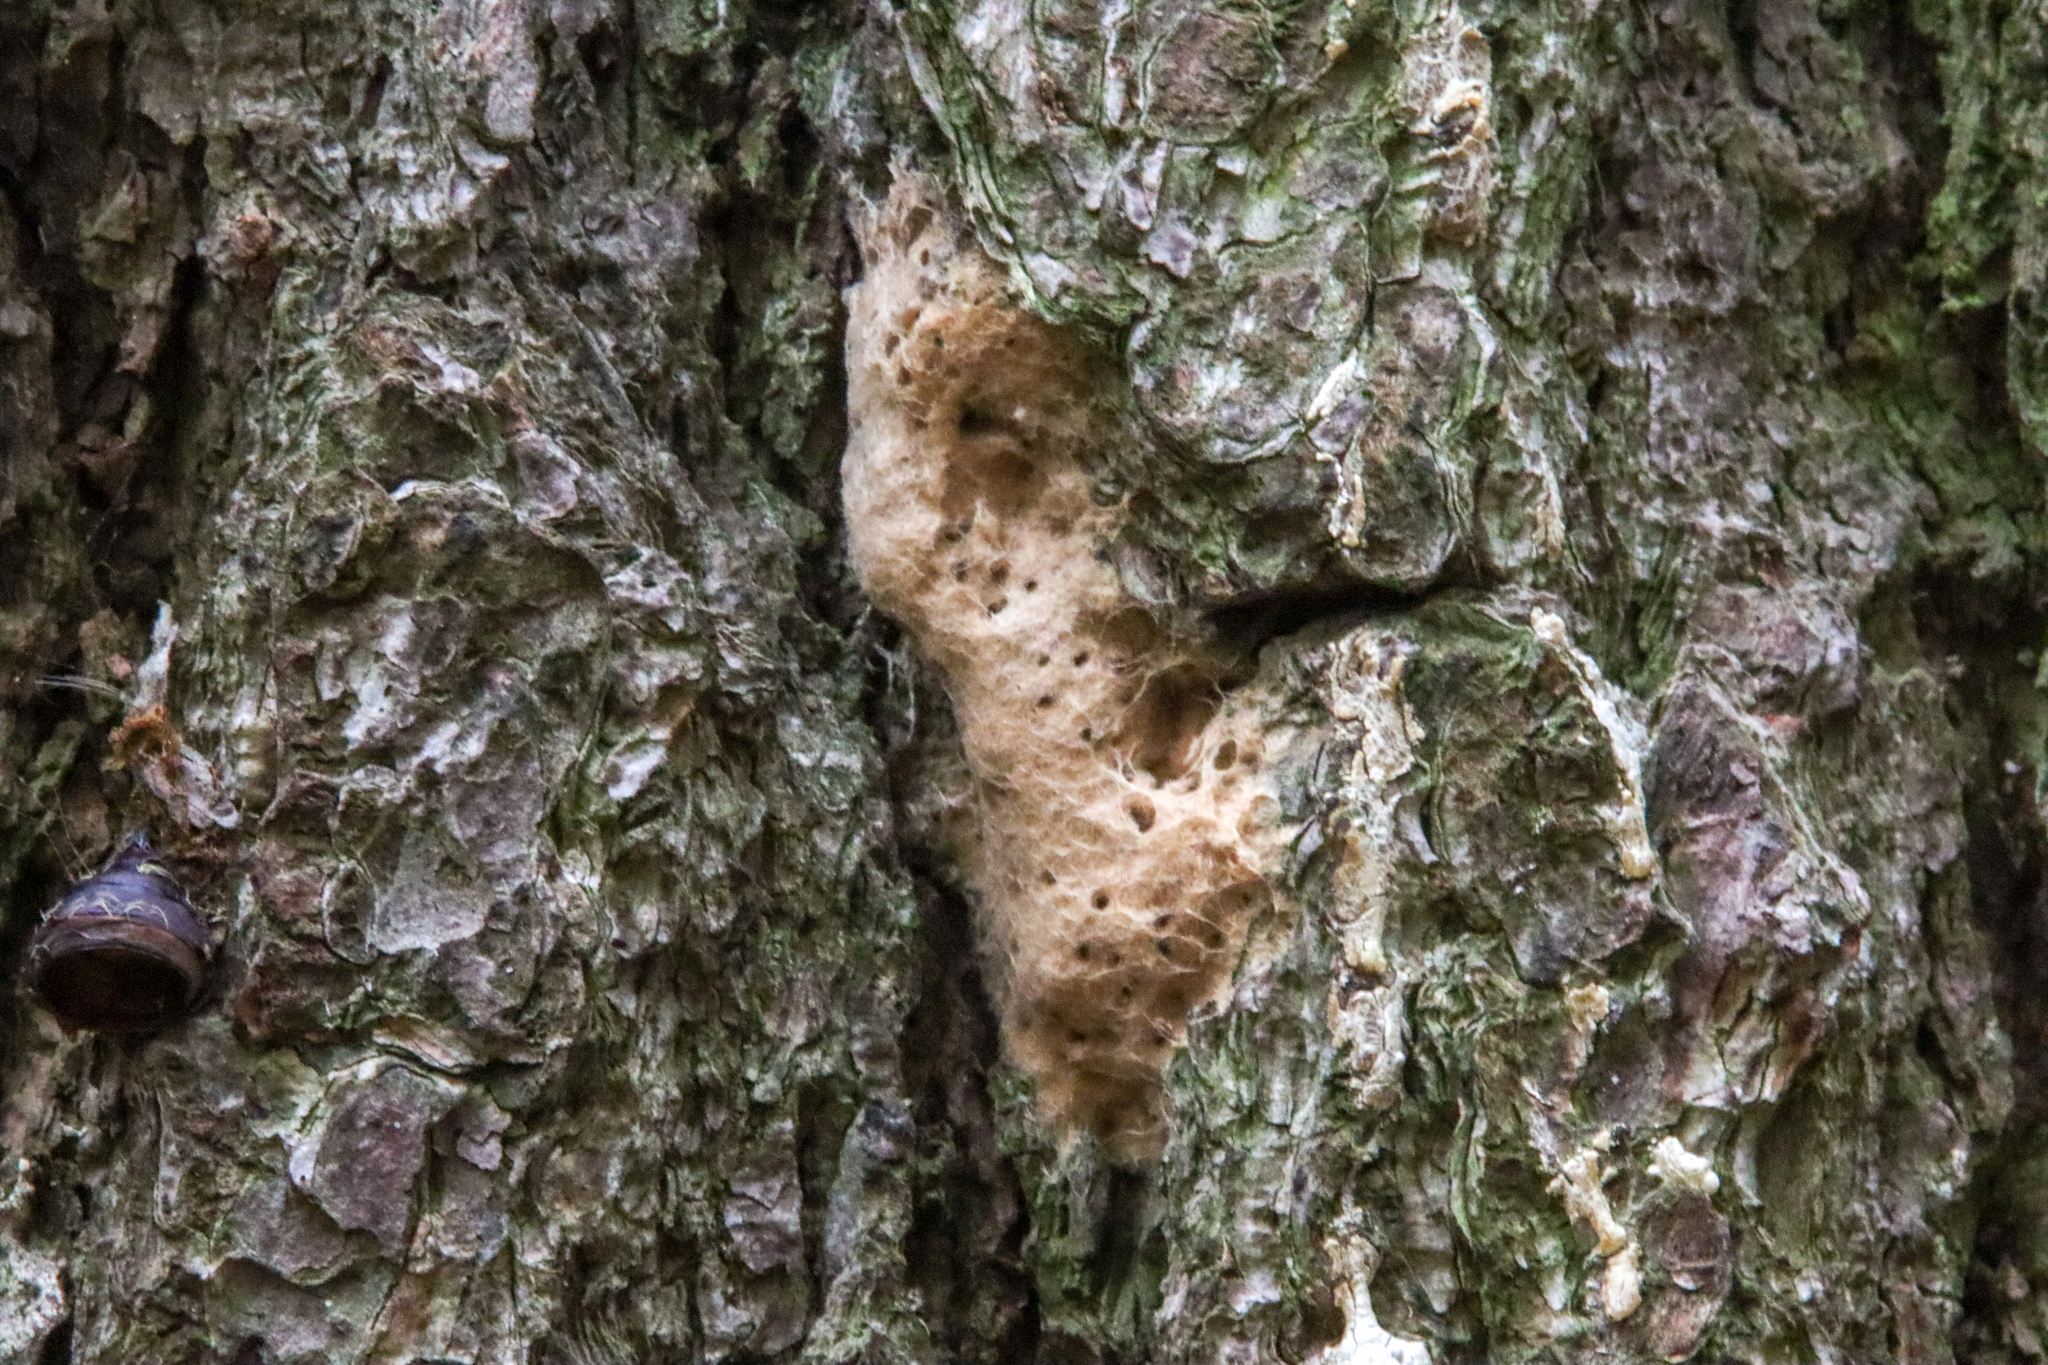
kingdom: Animalia
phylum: Arthropoda
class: Insecta
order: Lepidoptera
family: Erebidae
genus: Lymantria
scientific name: Lymantria dispar
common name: Gypsy moth
